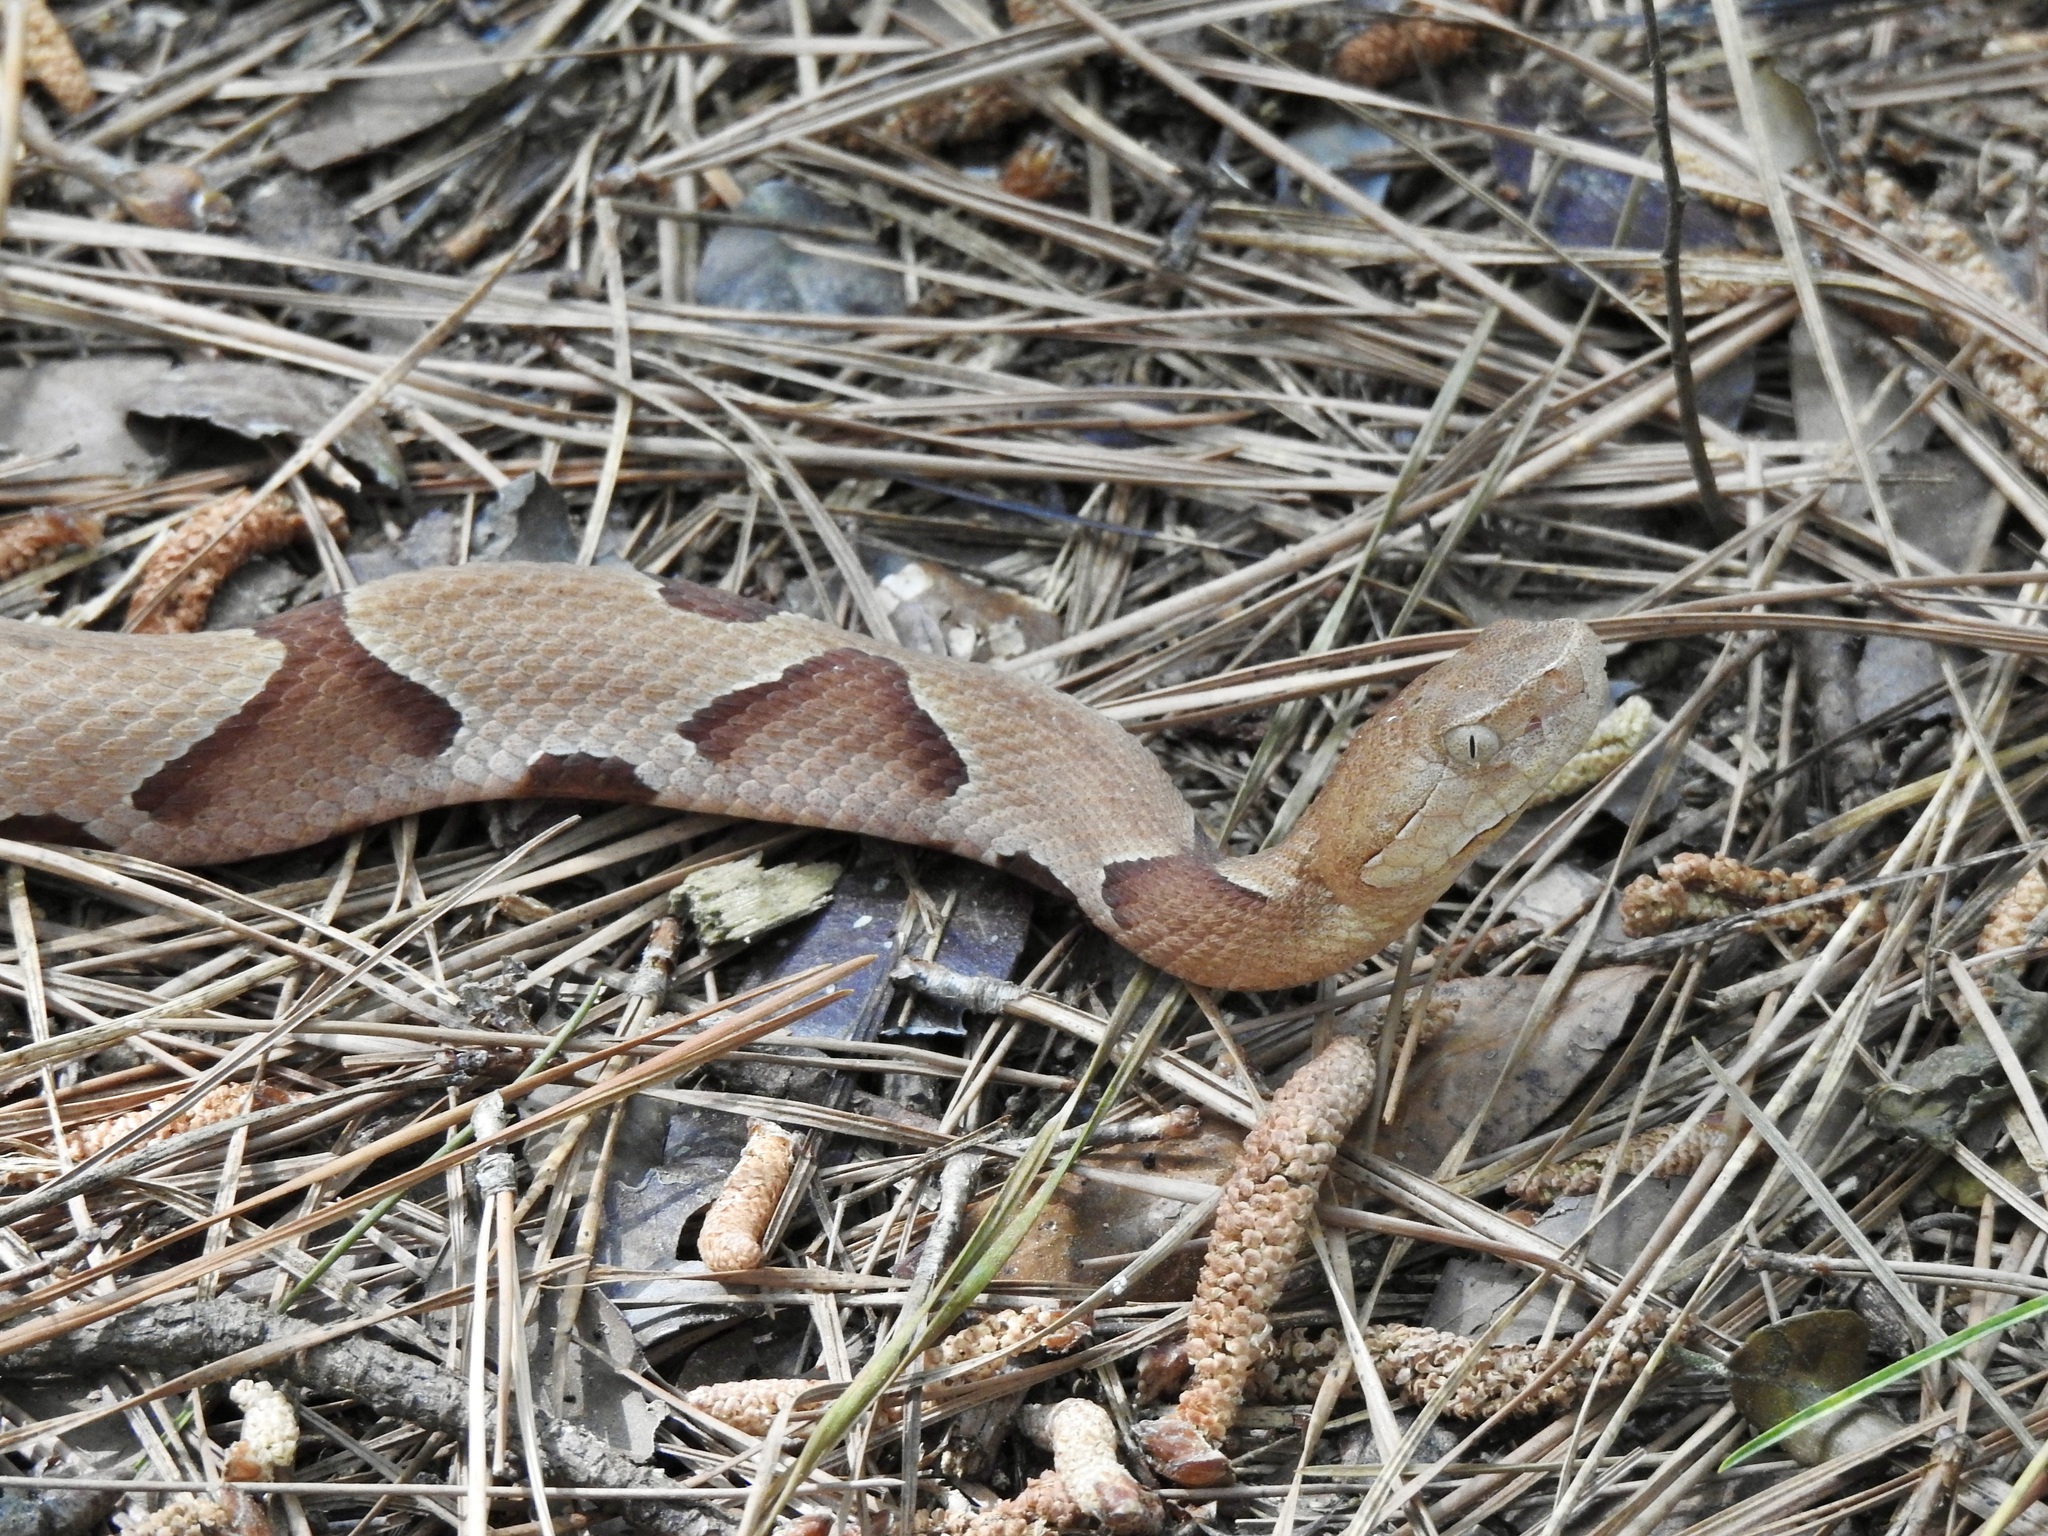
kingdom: Animalia
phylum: Chordata
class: Squamata
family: Viperidae
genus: Agkistrodon
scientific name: Agkistrodon contortrix
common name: Northern copperhead
